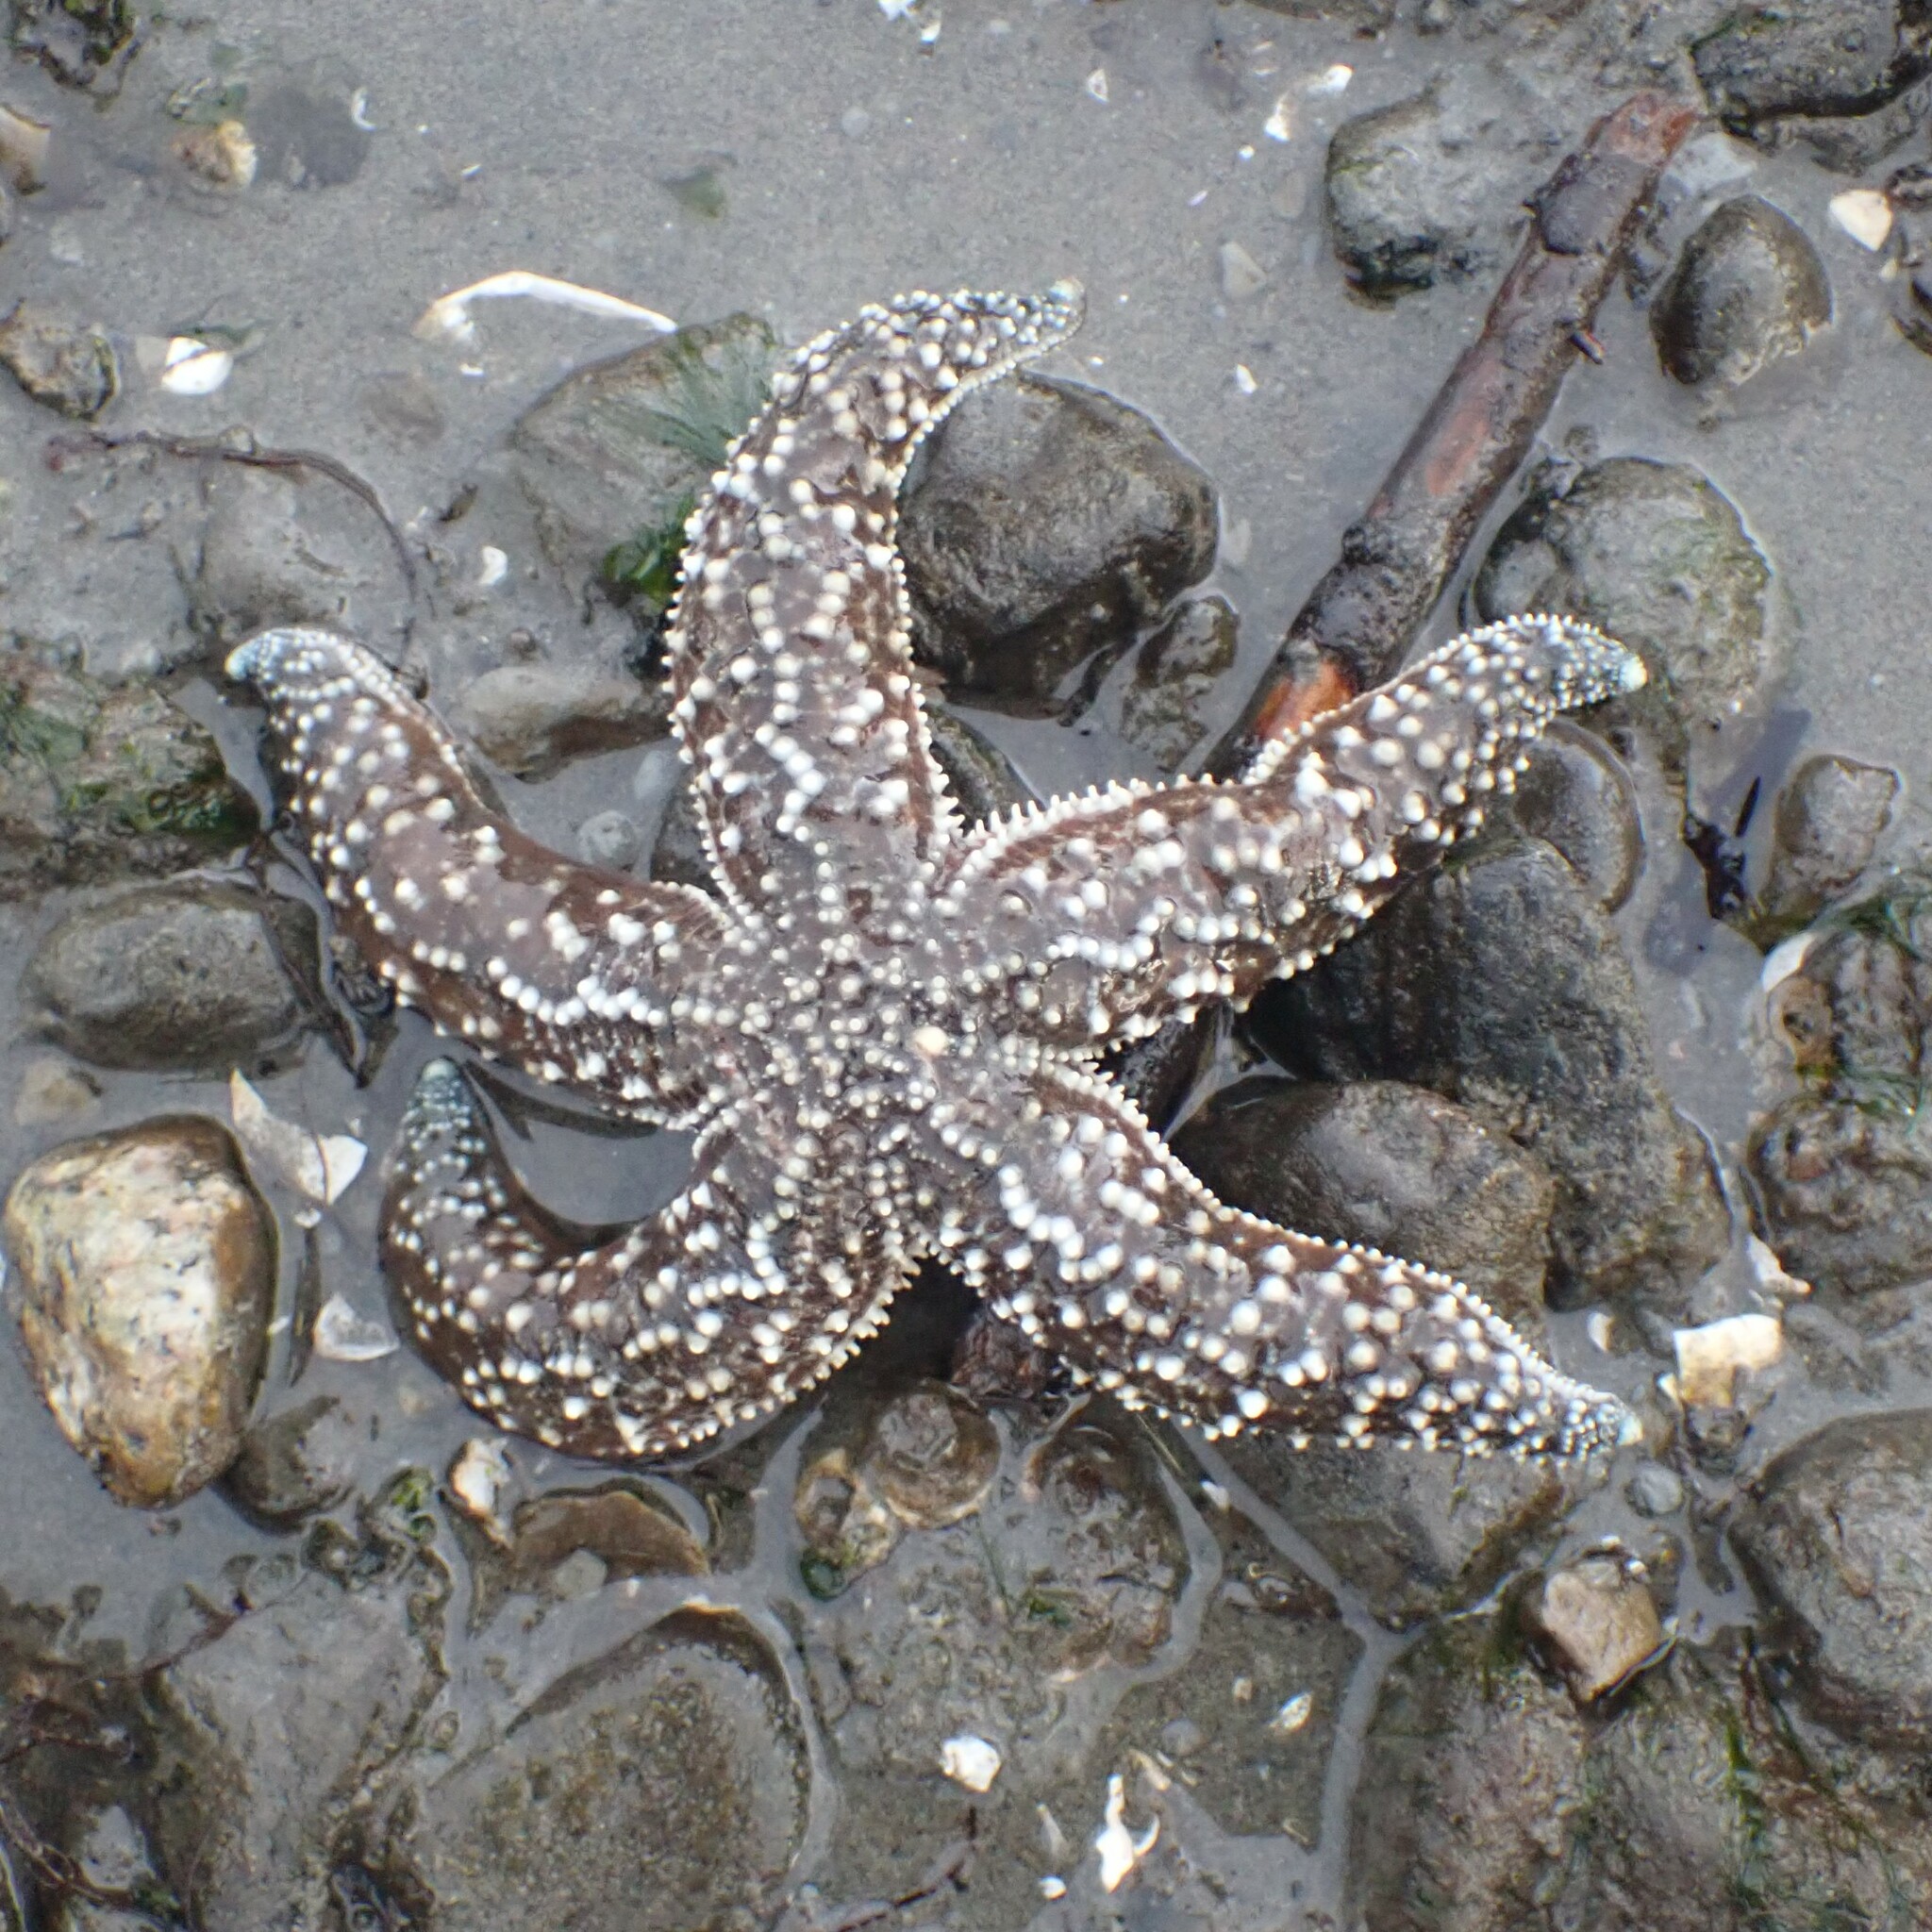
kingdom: Animalia
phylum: Echinodermata
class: Asteroidea
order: Forcipulatida
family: Asteriidae
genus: Evasterias
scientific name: Evasterias troschelii
